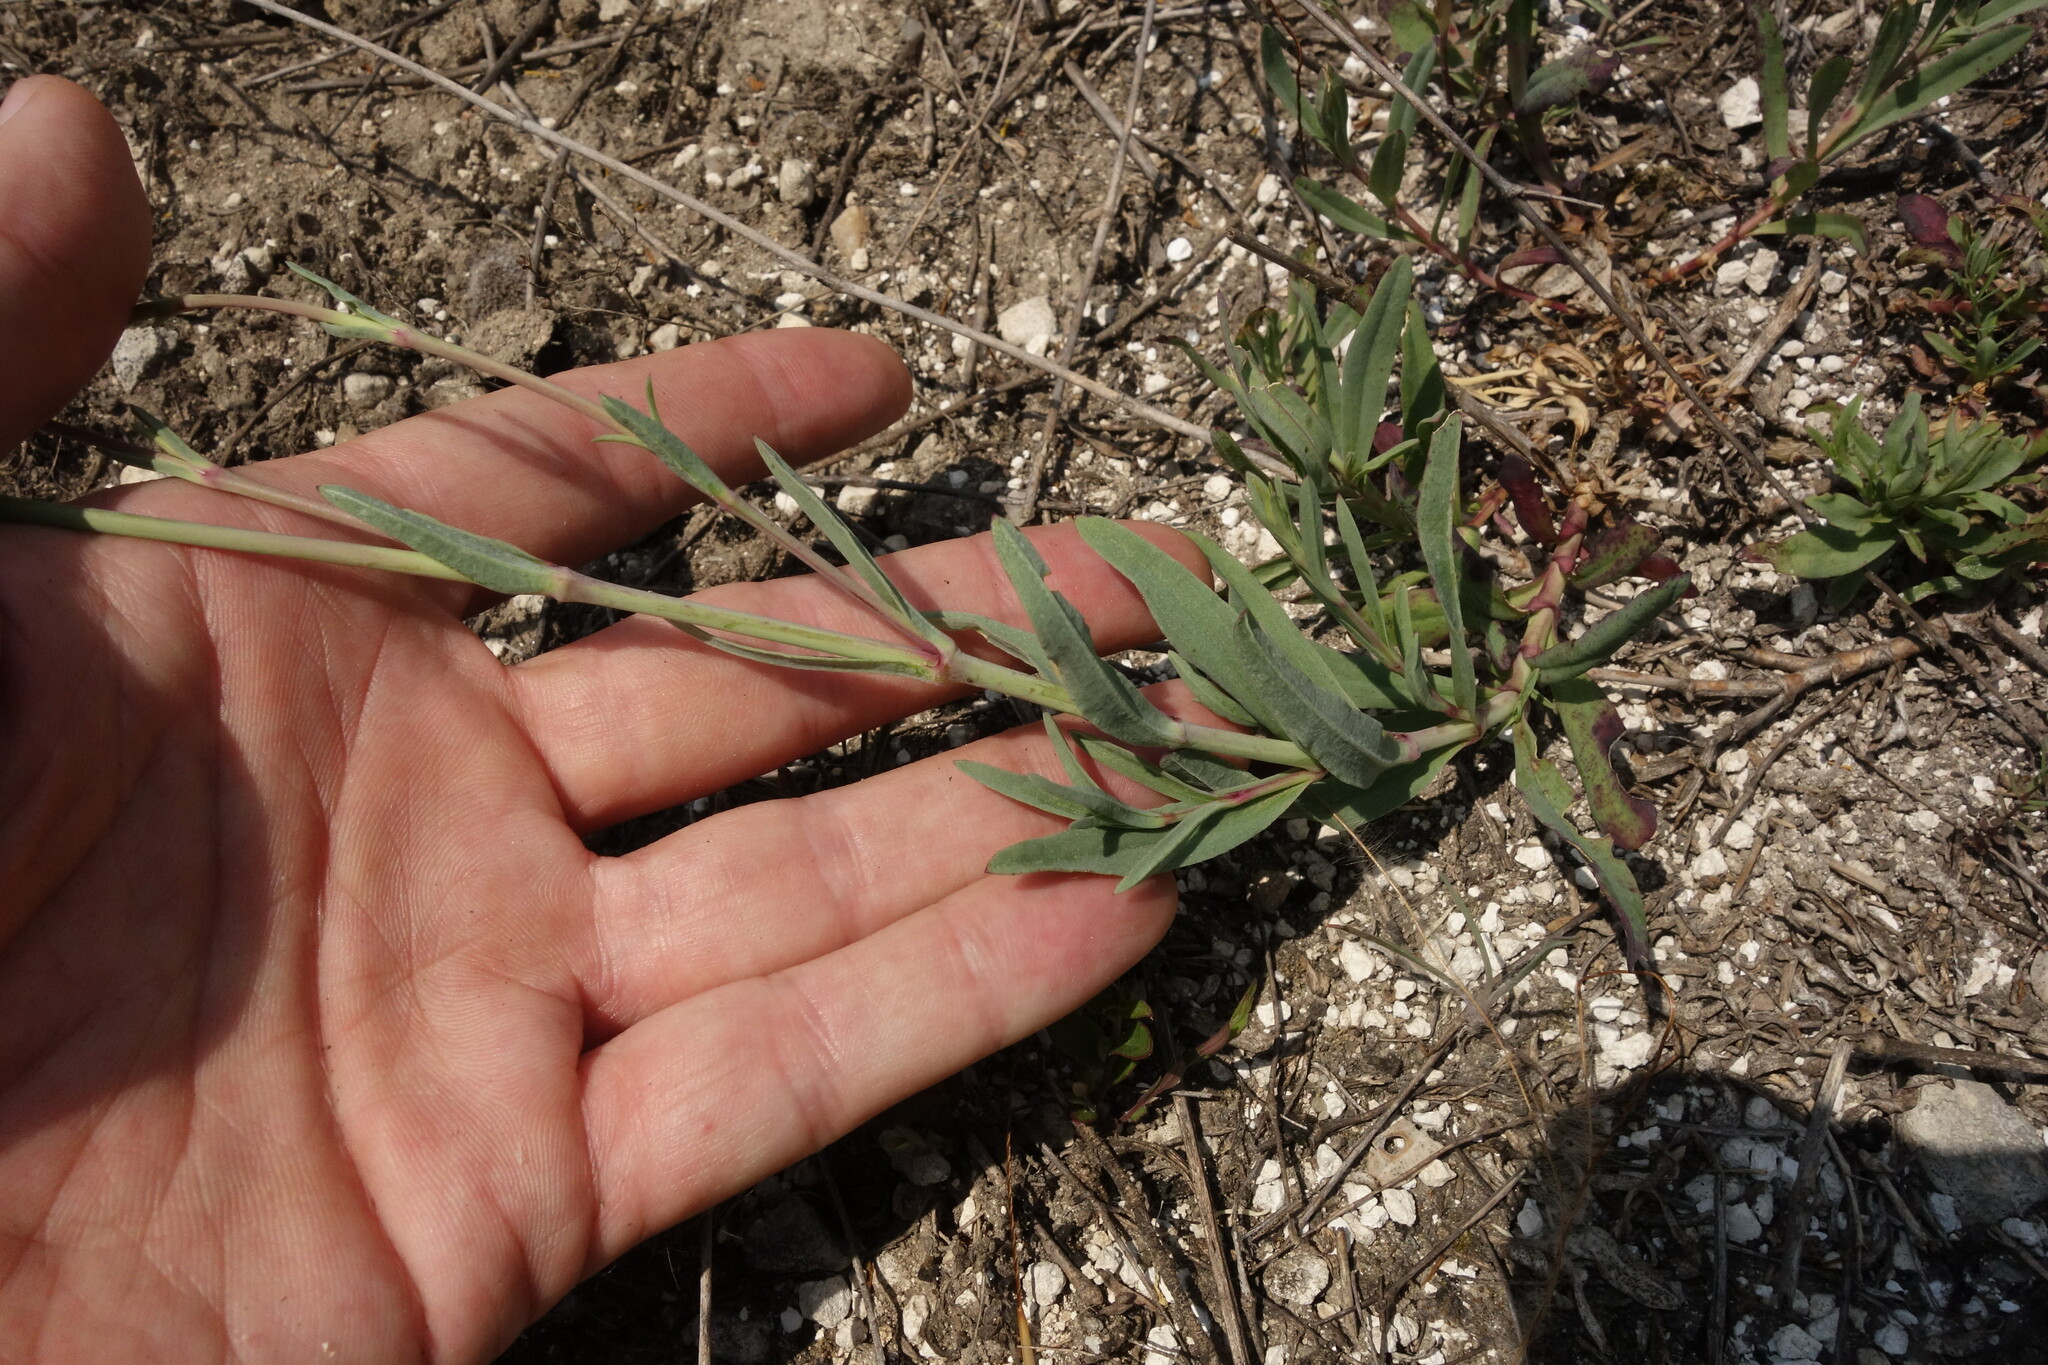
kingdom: Plantae
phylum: Tracheophyta
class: Magnoliopsida
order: Caryophyllales
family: Caryophyllaceae
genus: Gypsophila
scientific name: Gypsophila altissima
